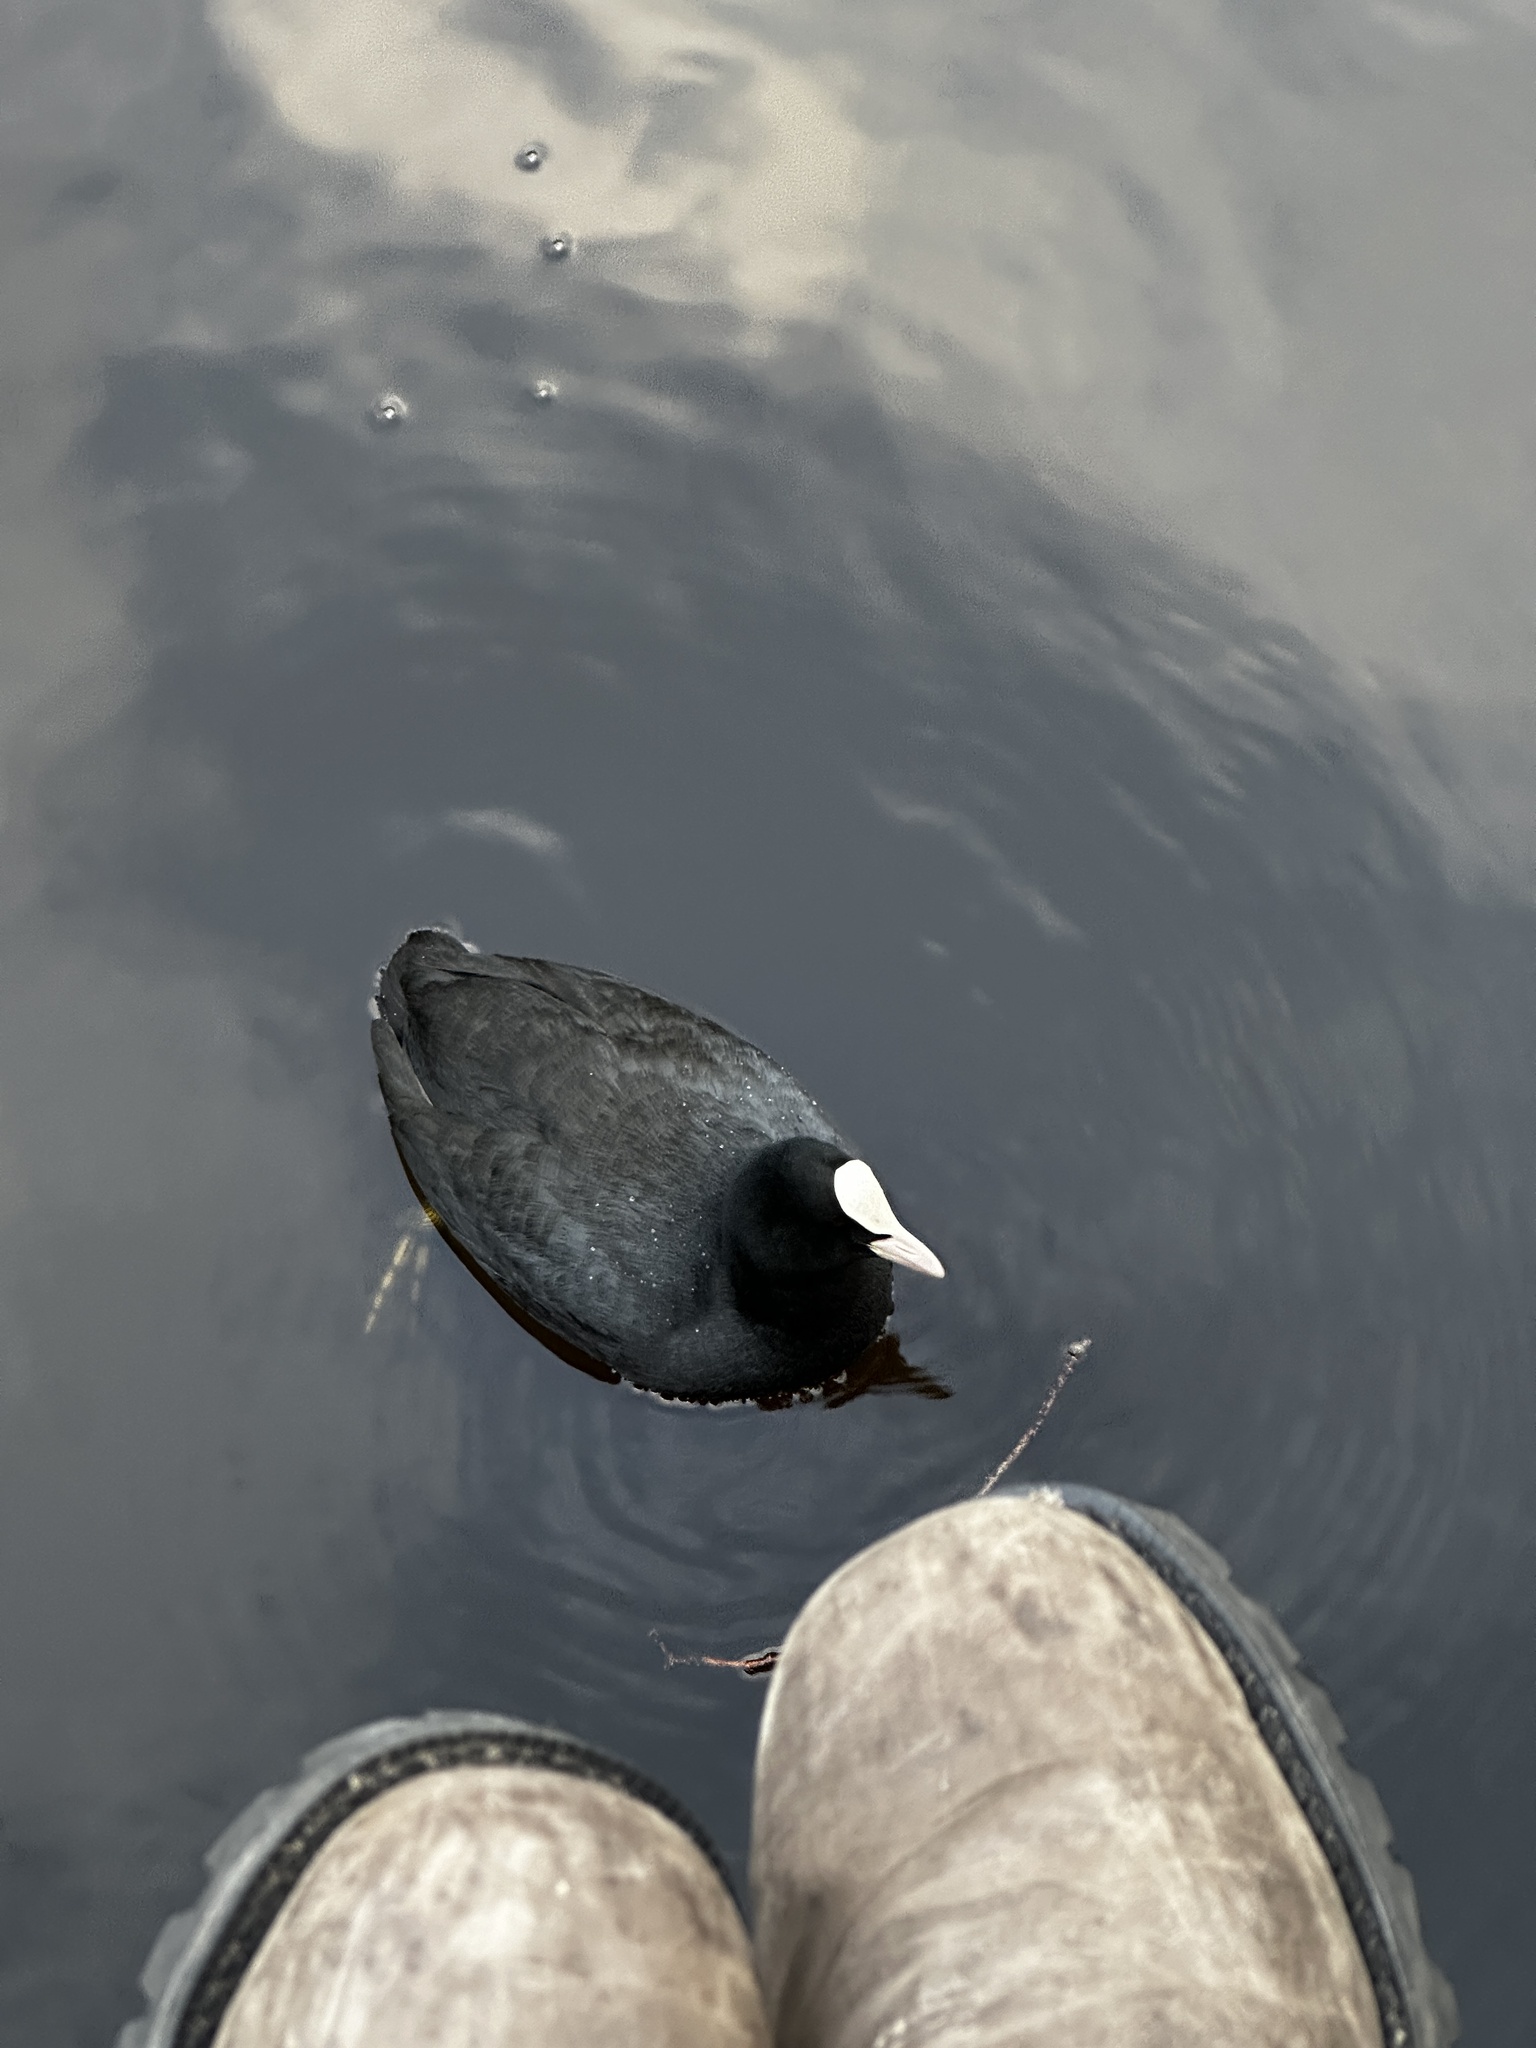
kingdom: Animalia
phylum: Chordata
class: Aves
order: Gruiformes
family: Rallidae
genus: Fulica
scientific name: Fulica atra
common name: Eurasian coot
